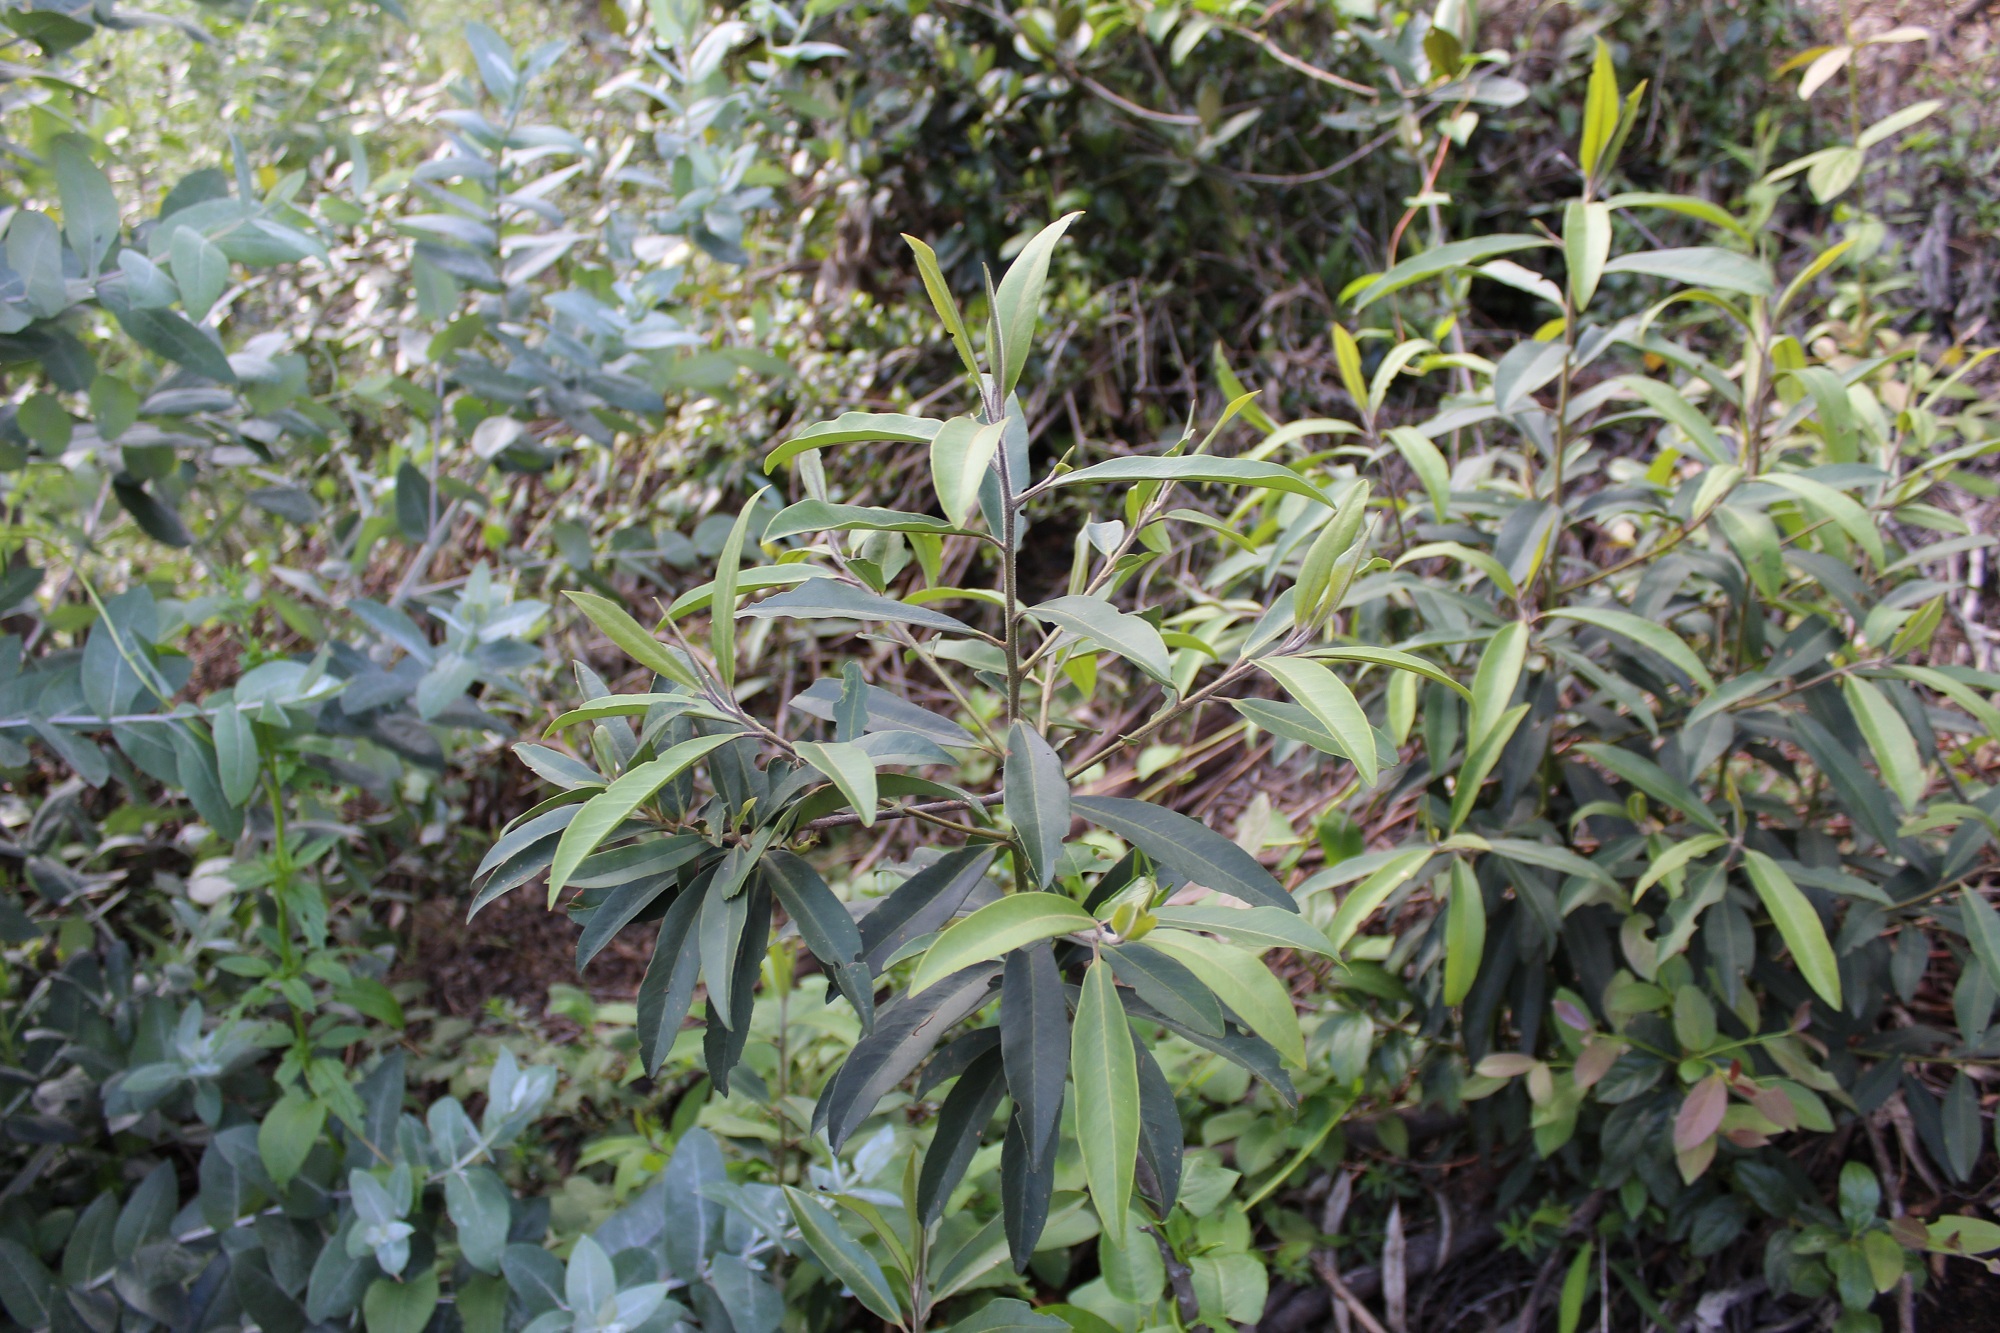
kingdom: Plantae
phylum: Tracheophyta
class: Magnoliopsida
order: Ericales
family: Primulaceae
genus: Myrsine
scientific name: Myrsine coriacea
